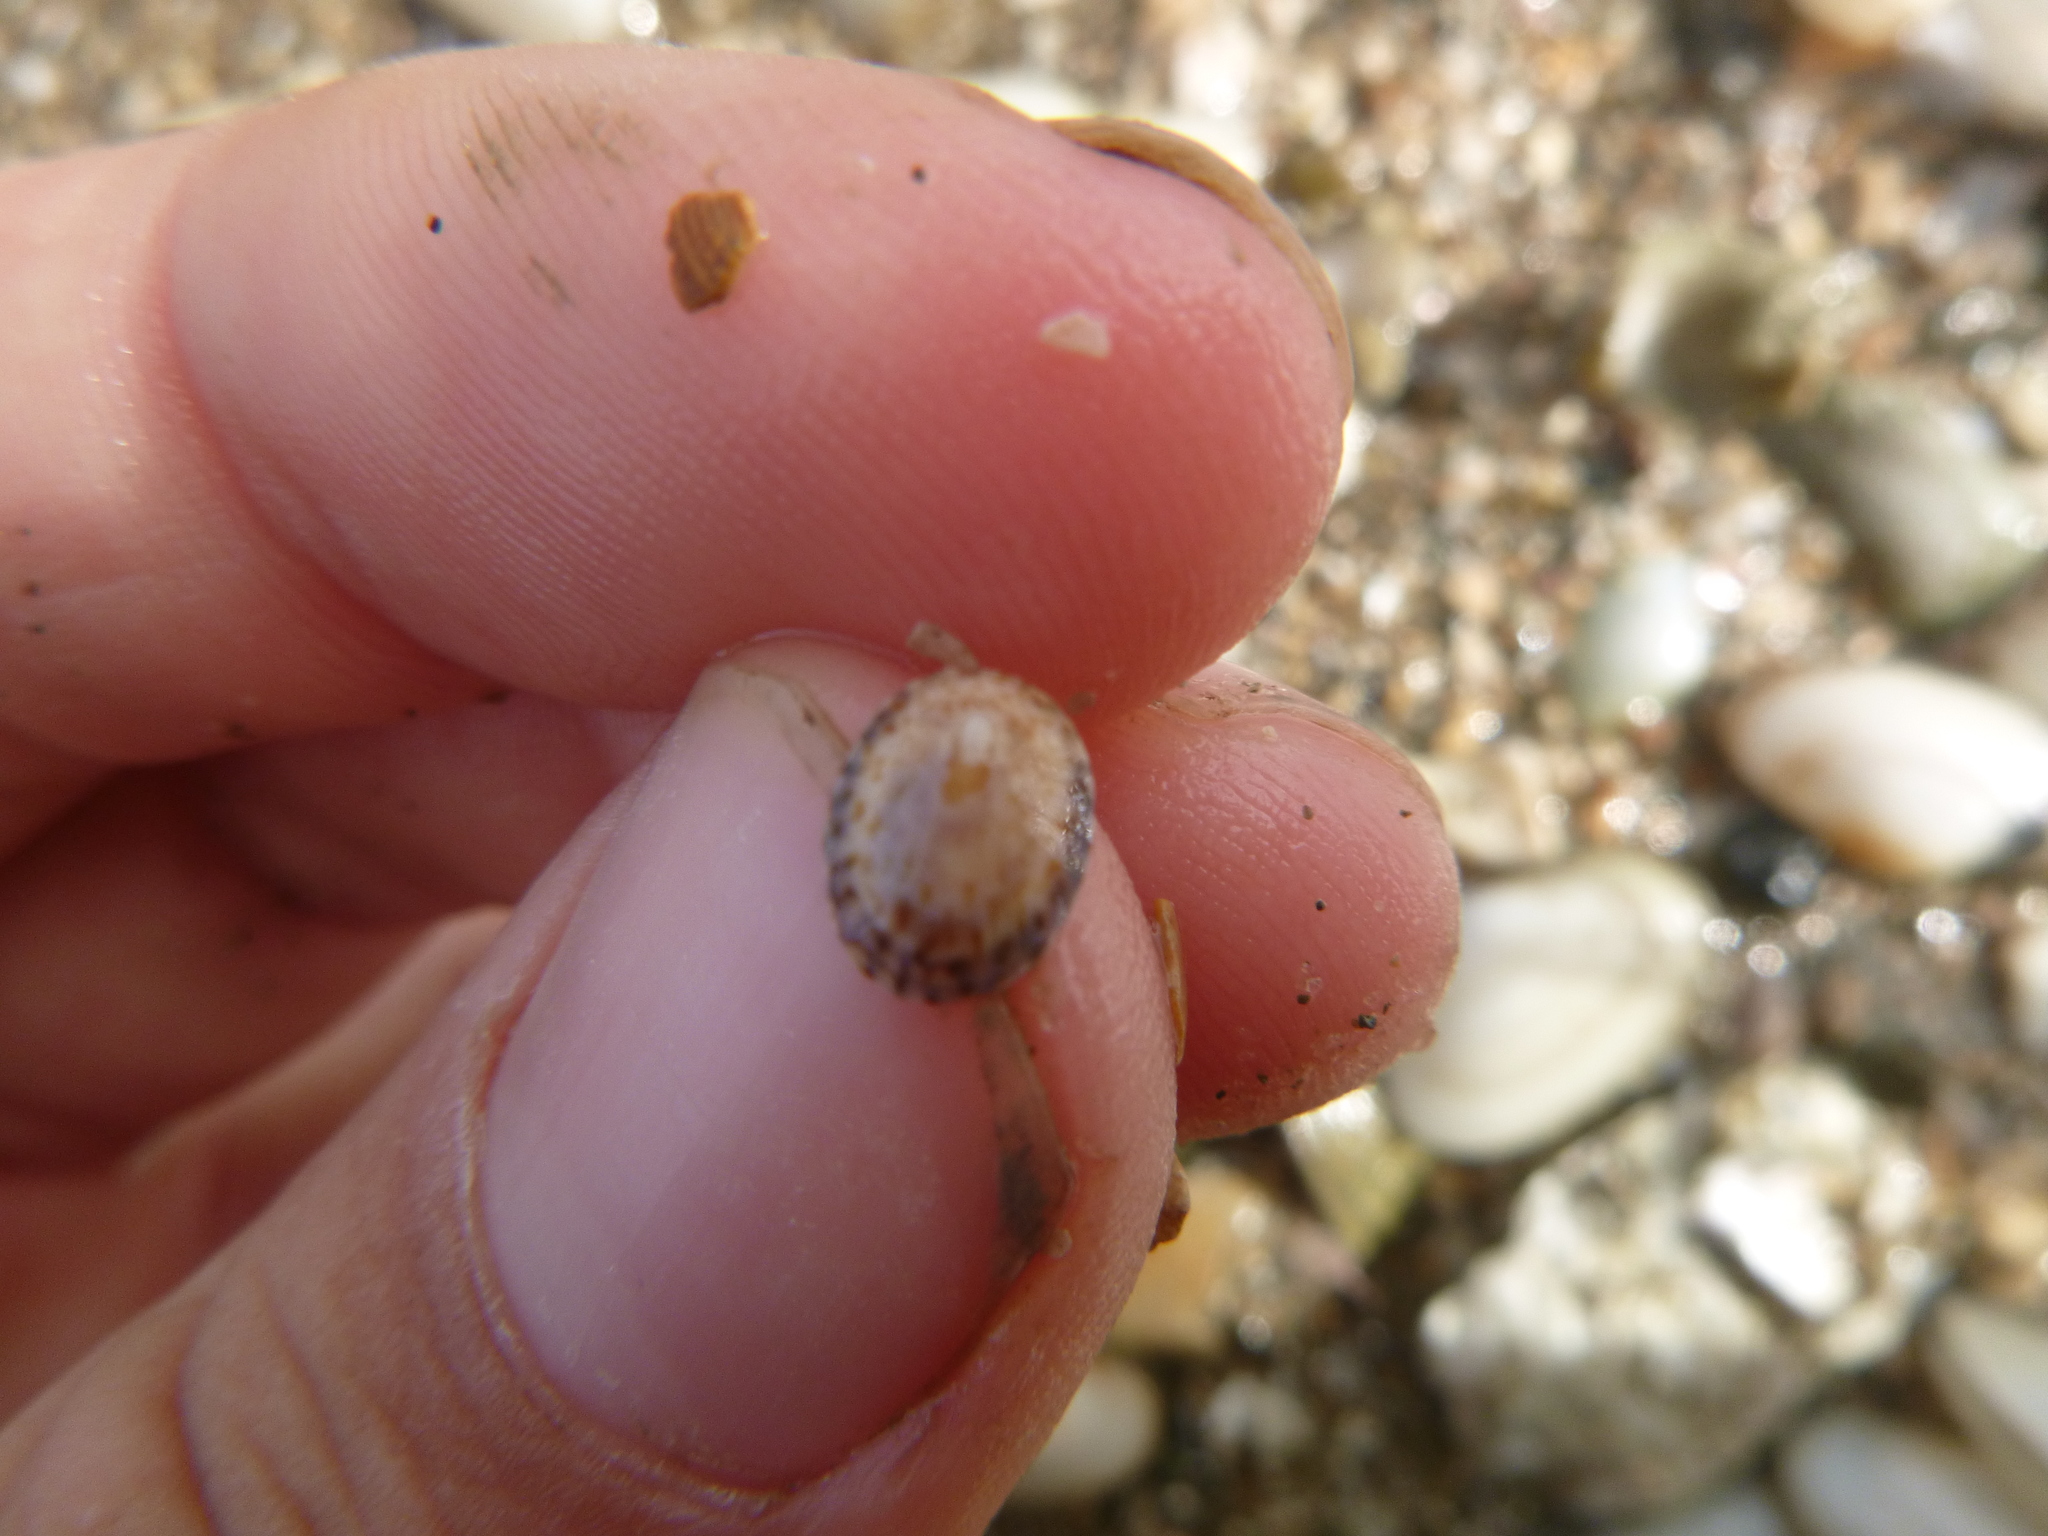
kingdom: Animalia
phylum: Mollusca
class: Gastropoda
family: Lottiidae
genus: Notoacmea
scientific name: Notoacmea
